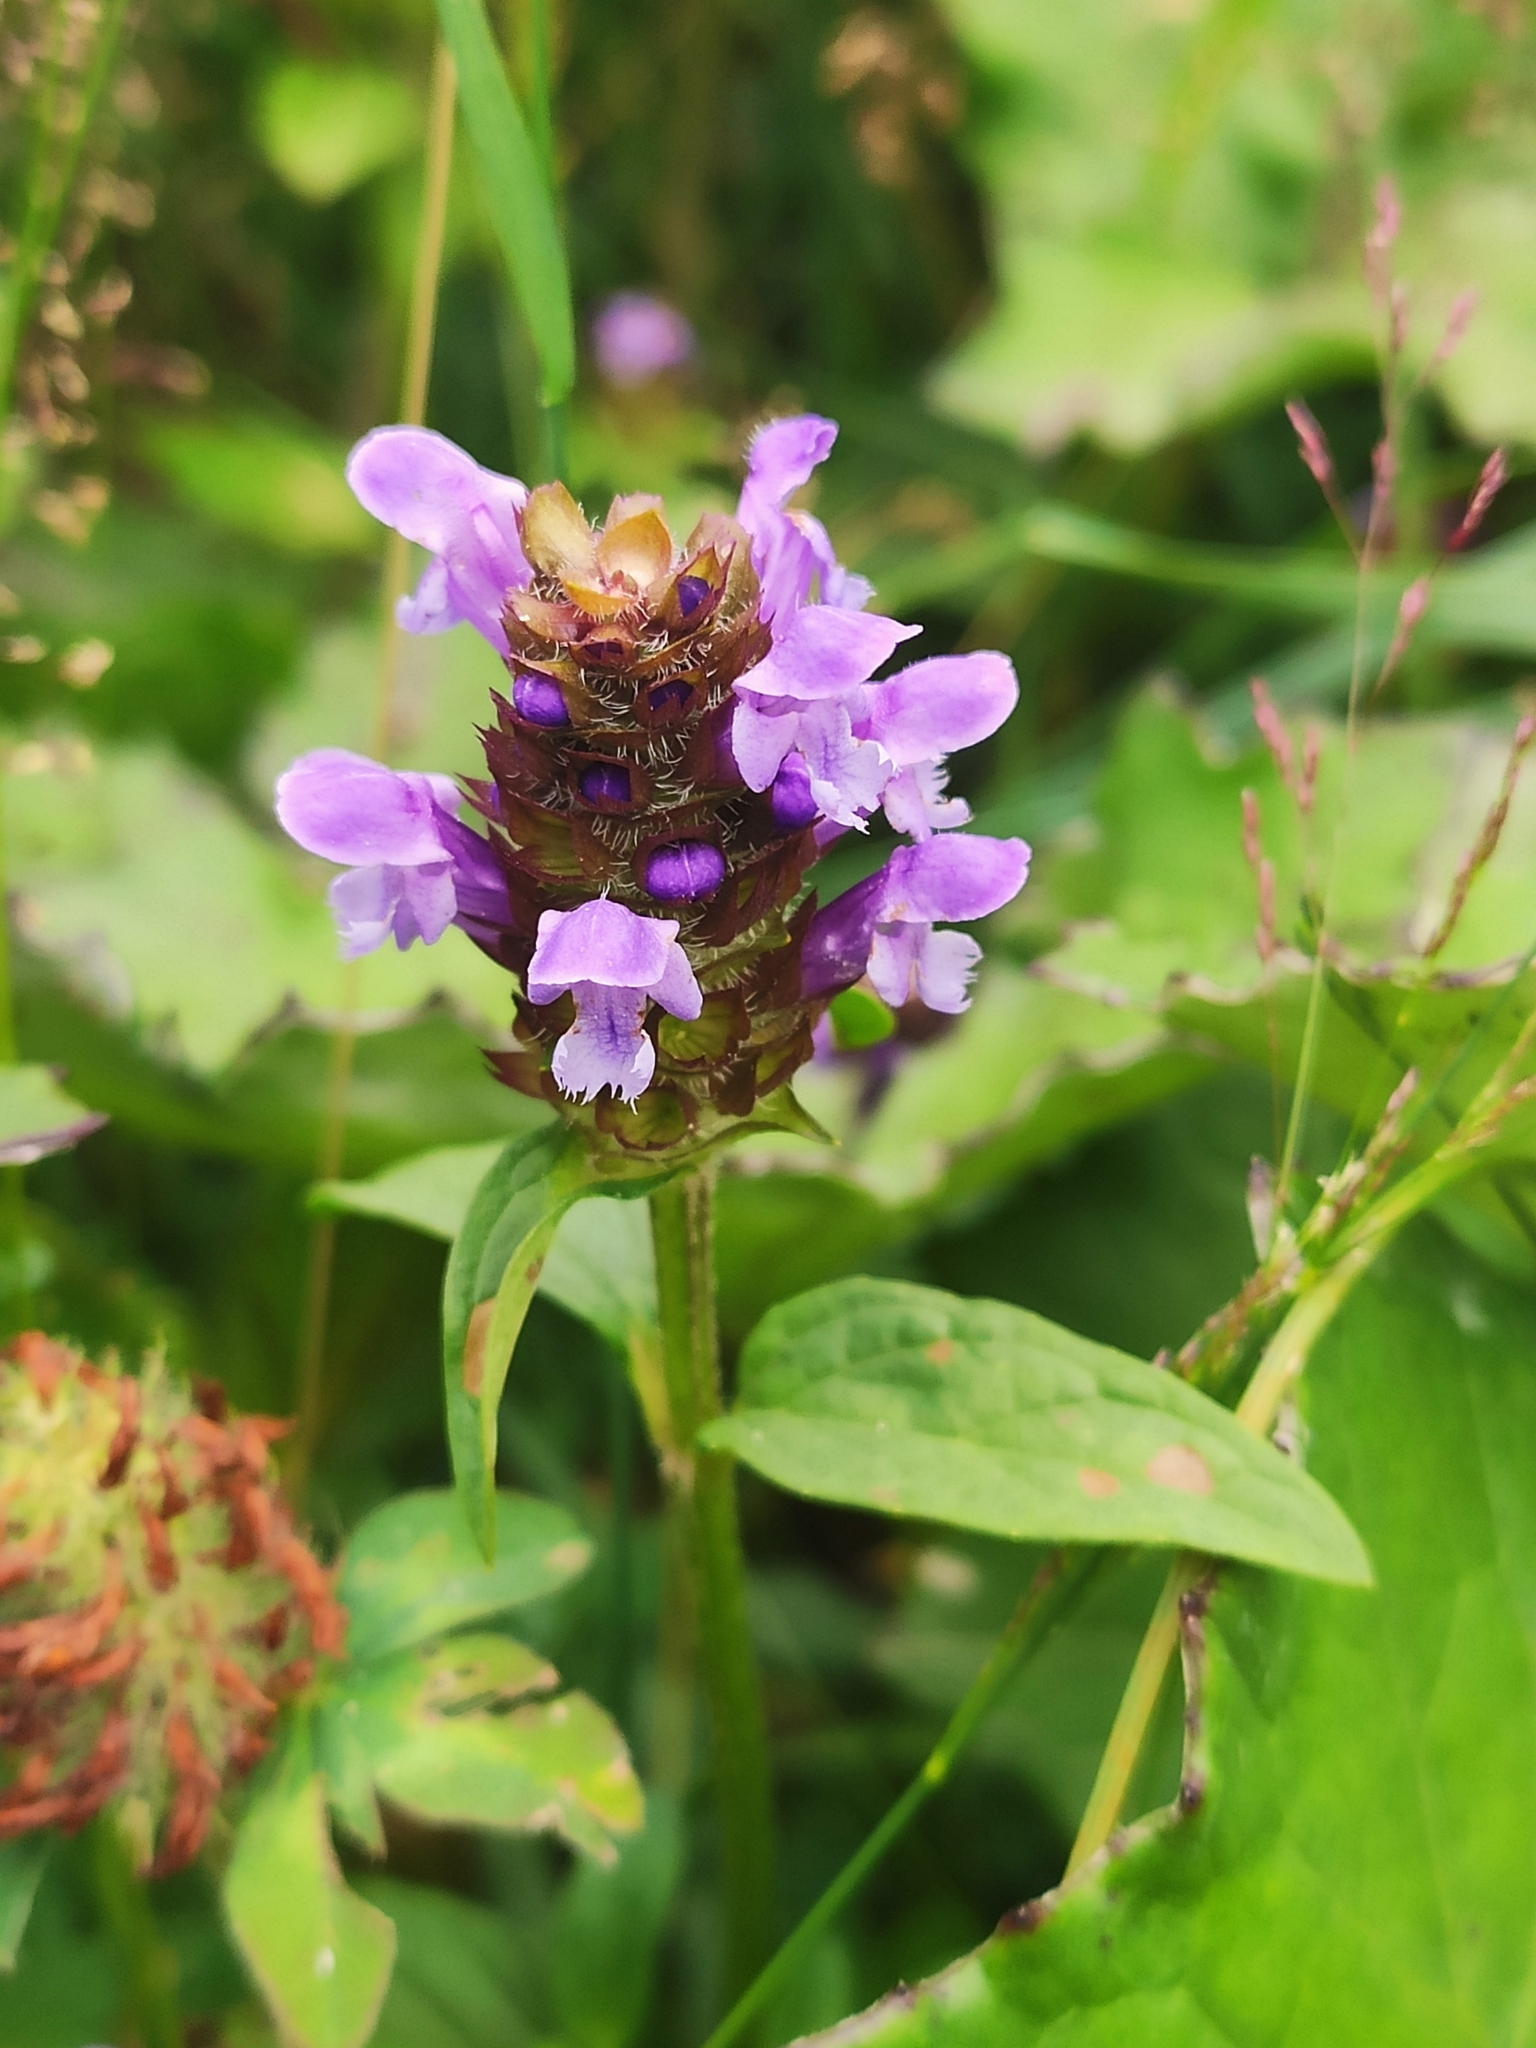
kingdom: Plantae
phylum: Tracheophyta
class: Magnoliopsida
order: Lamiales
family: Lamiaceae
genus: Prunella
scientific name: Prunella vulgaris
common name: Heal-all
